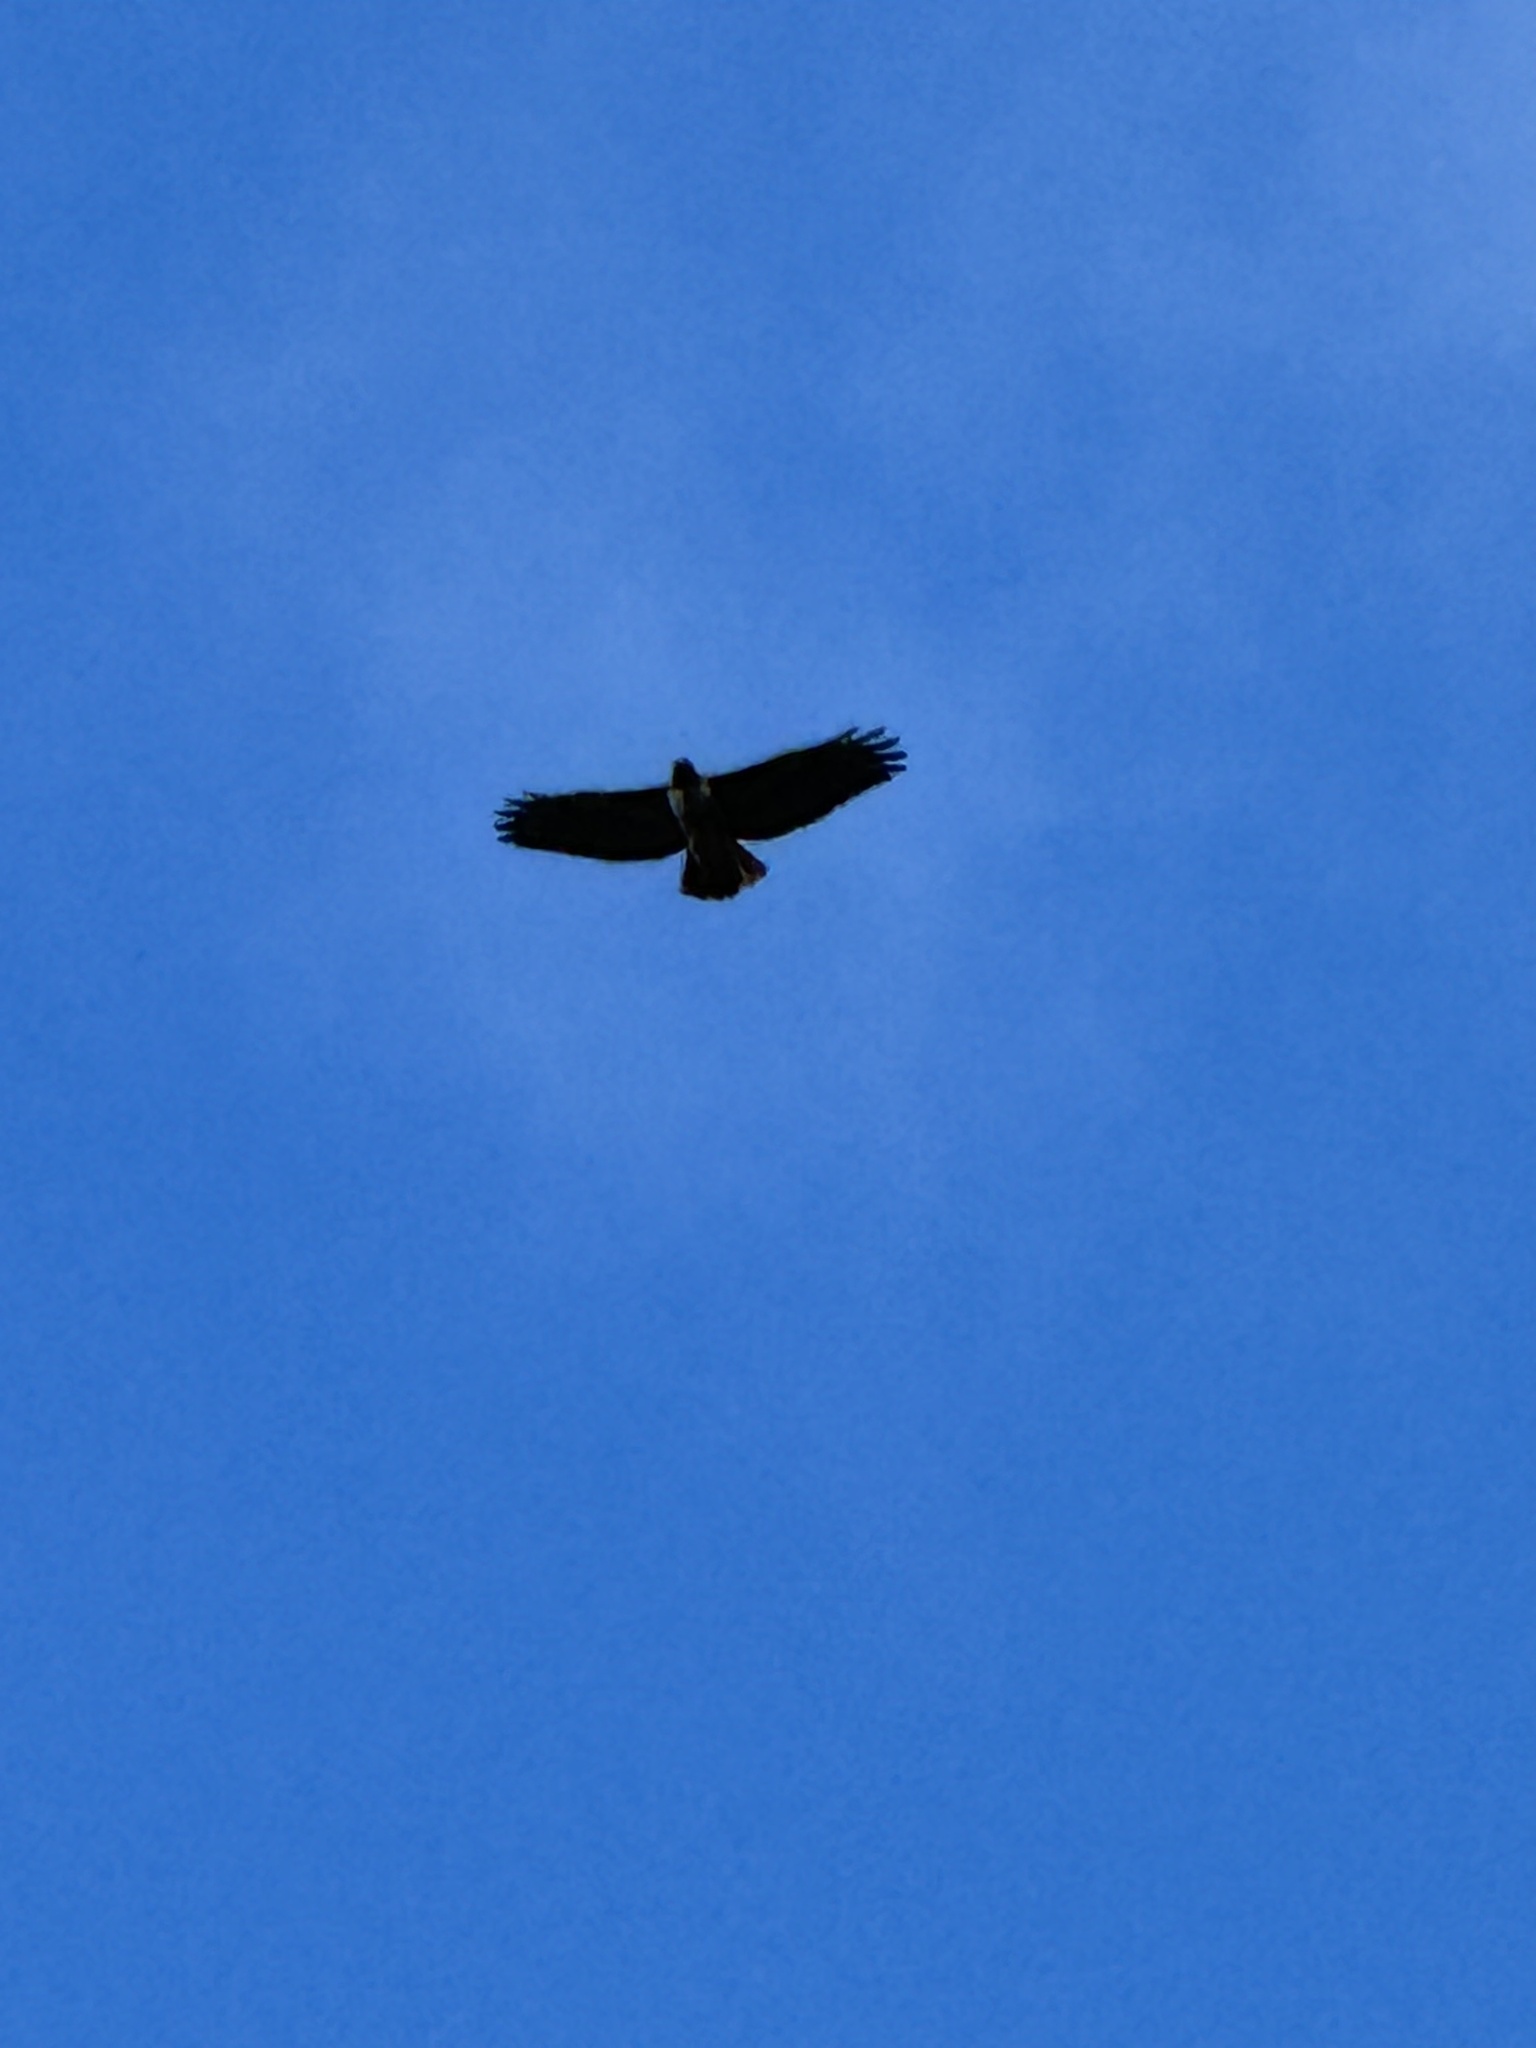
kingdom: Animalia
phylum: Chordata
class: Aves
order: Accipitriformes
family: Accipitridae
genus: Buteo
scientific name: Buteo jamaicensis
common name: Red-tailed hawk
